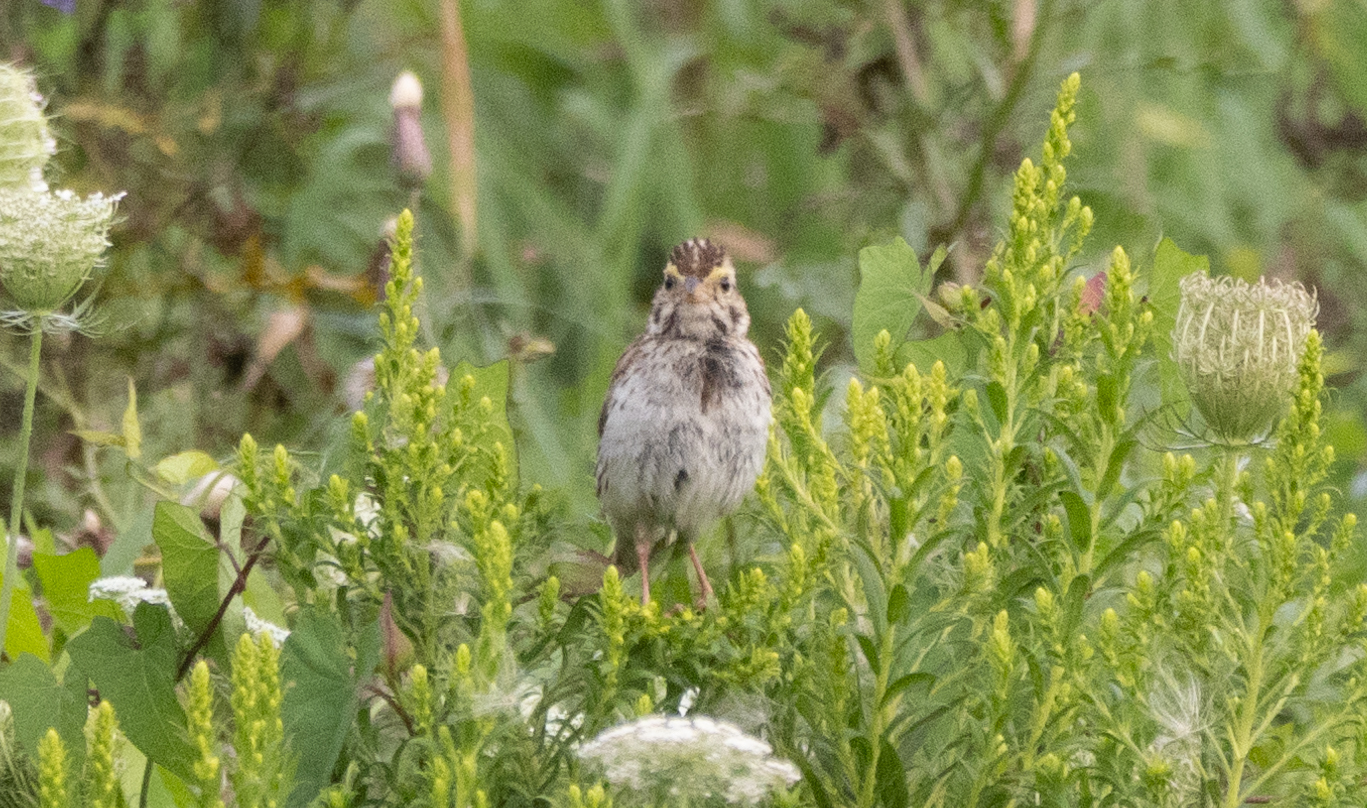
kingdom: Animalia
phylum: Chordata
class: Aves
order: Passeriformes
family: Passerellidae
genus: Passerculus
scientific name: Passerculus sandwichensis
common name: Savannah sparrow
